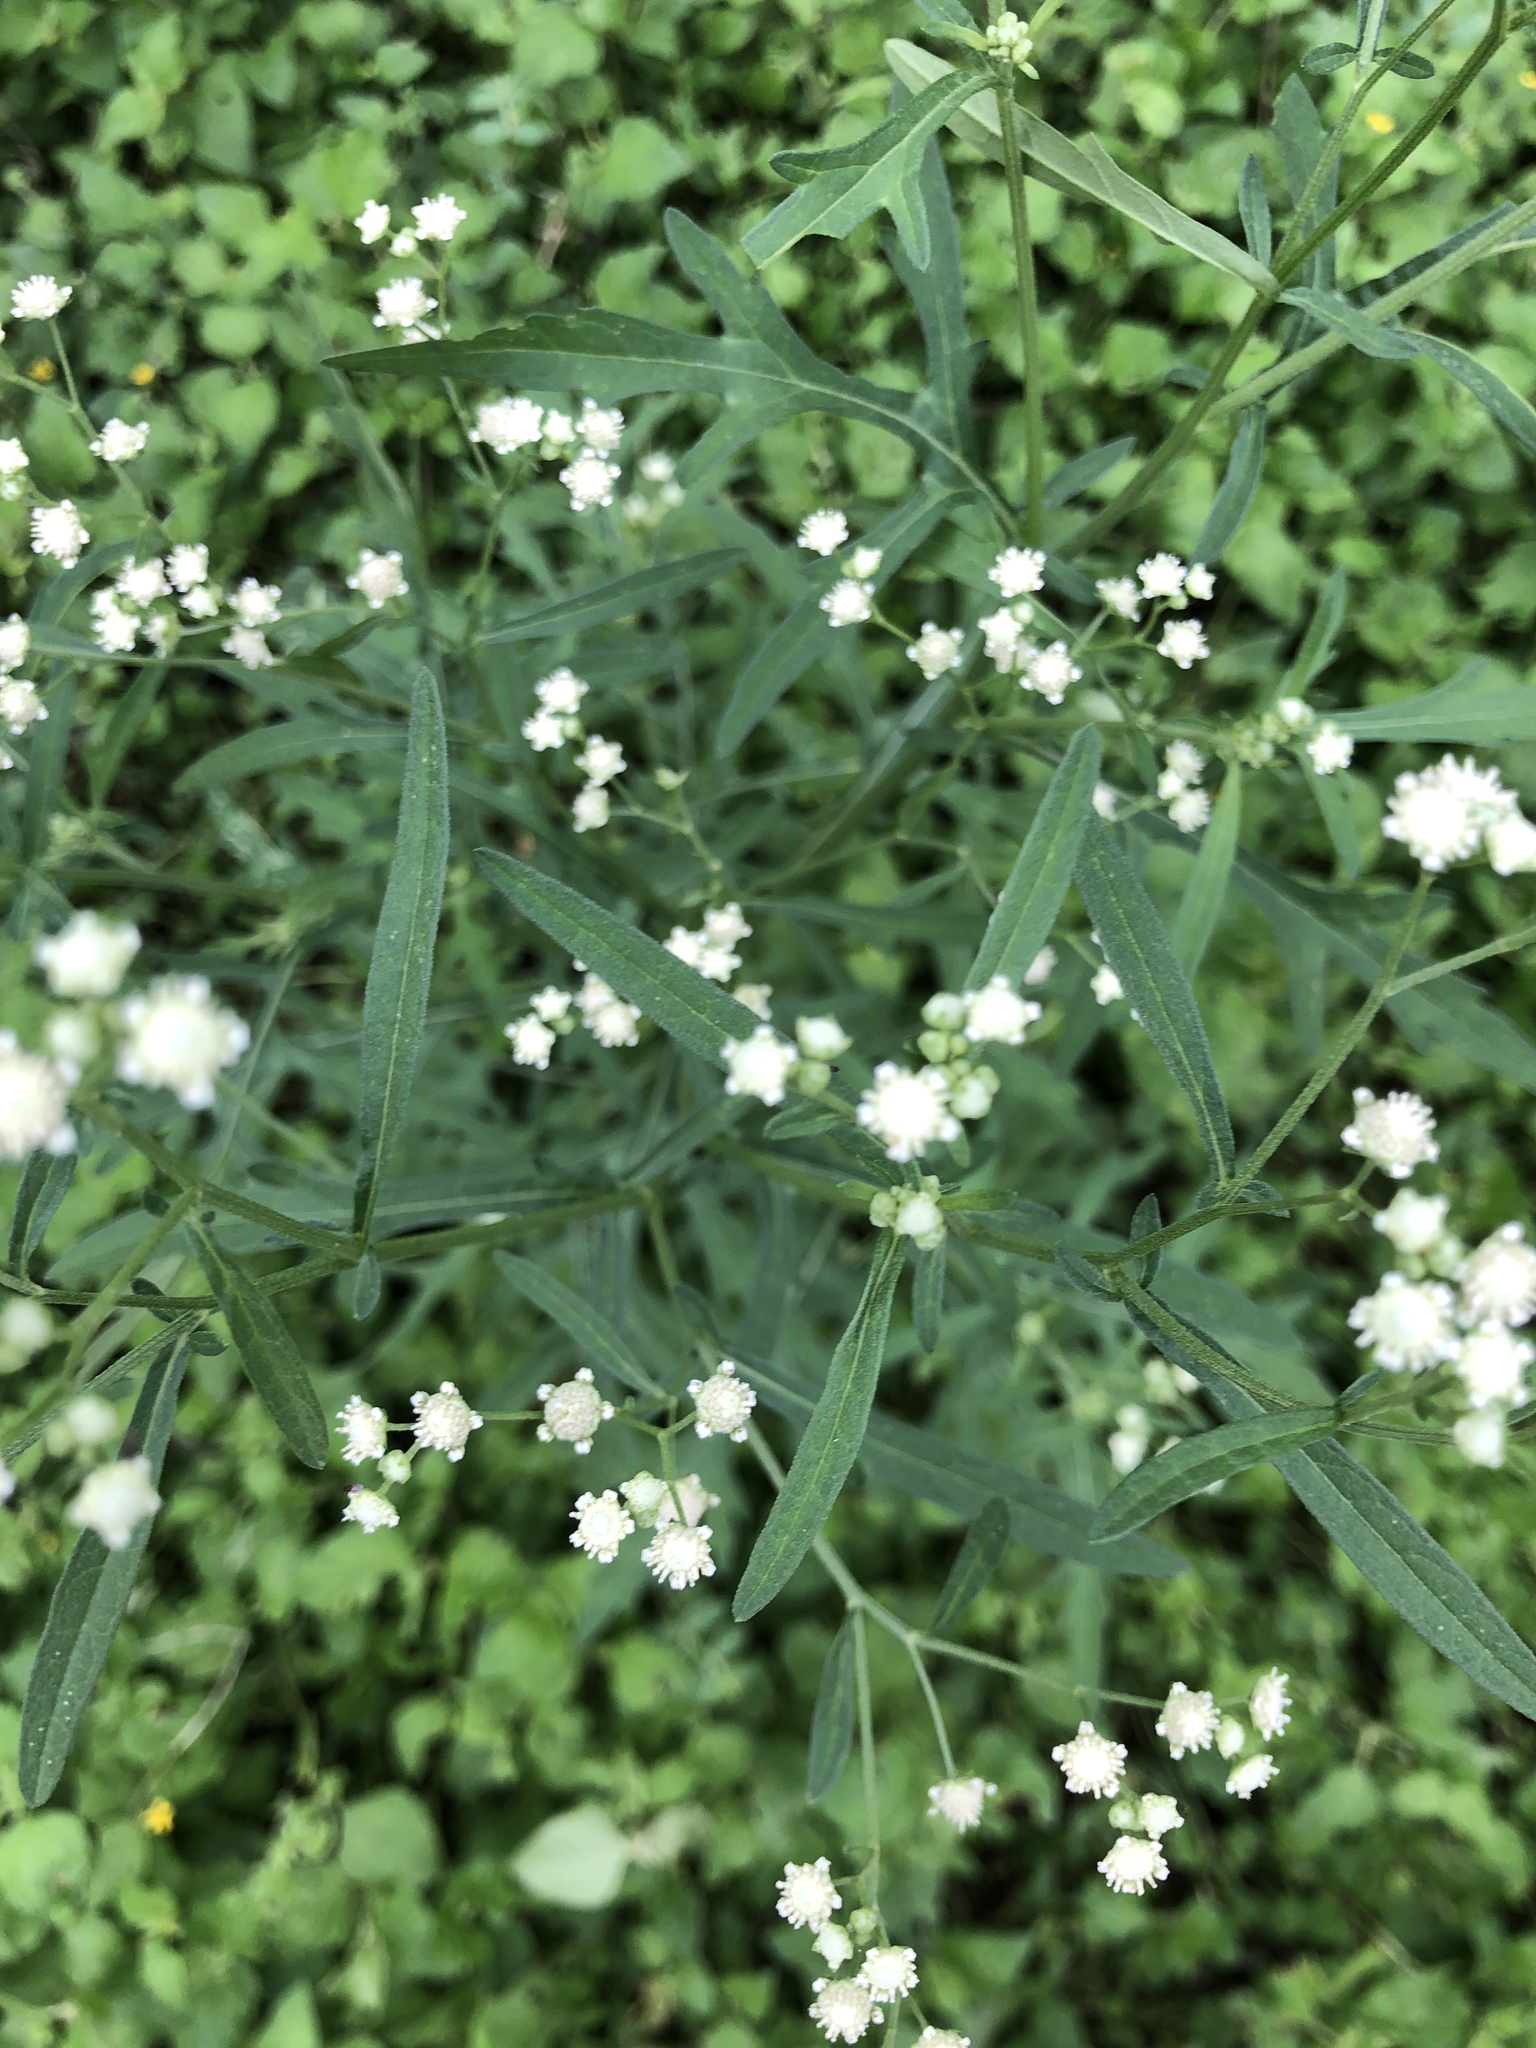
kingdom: Plantae
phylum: Tracheophyta
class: Magnoliopsida
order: Asterales
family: Asteraceae
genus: Parthenium
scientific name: Parthenium hysterophorus
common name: Santa maria feverfew
